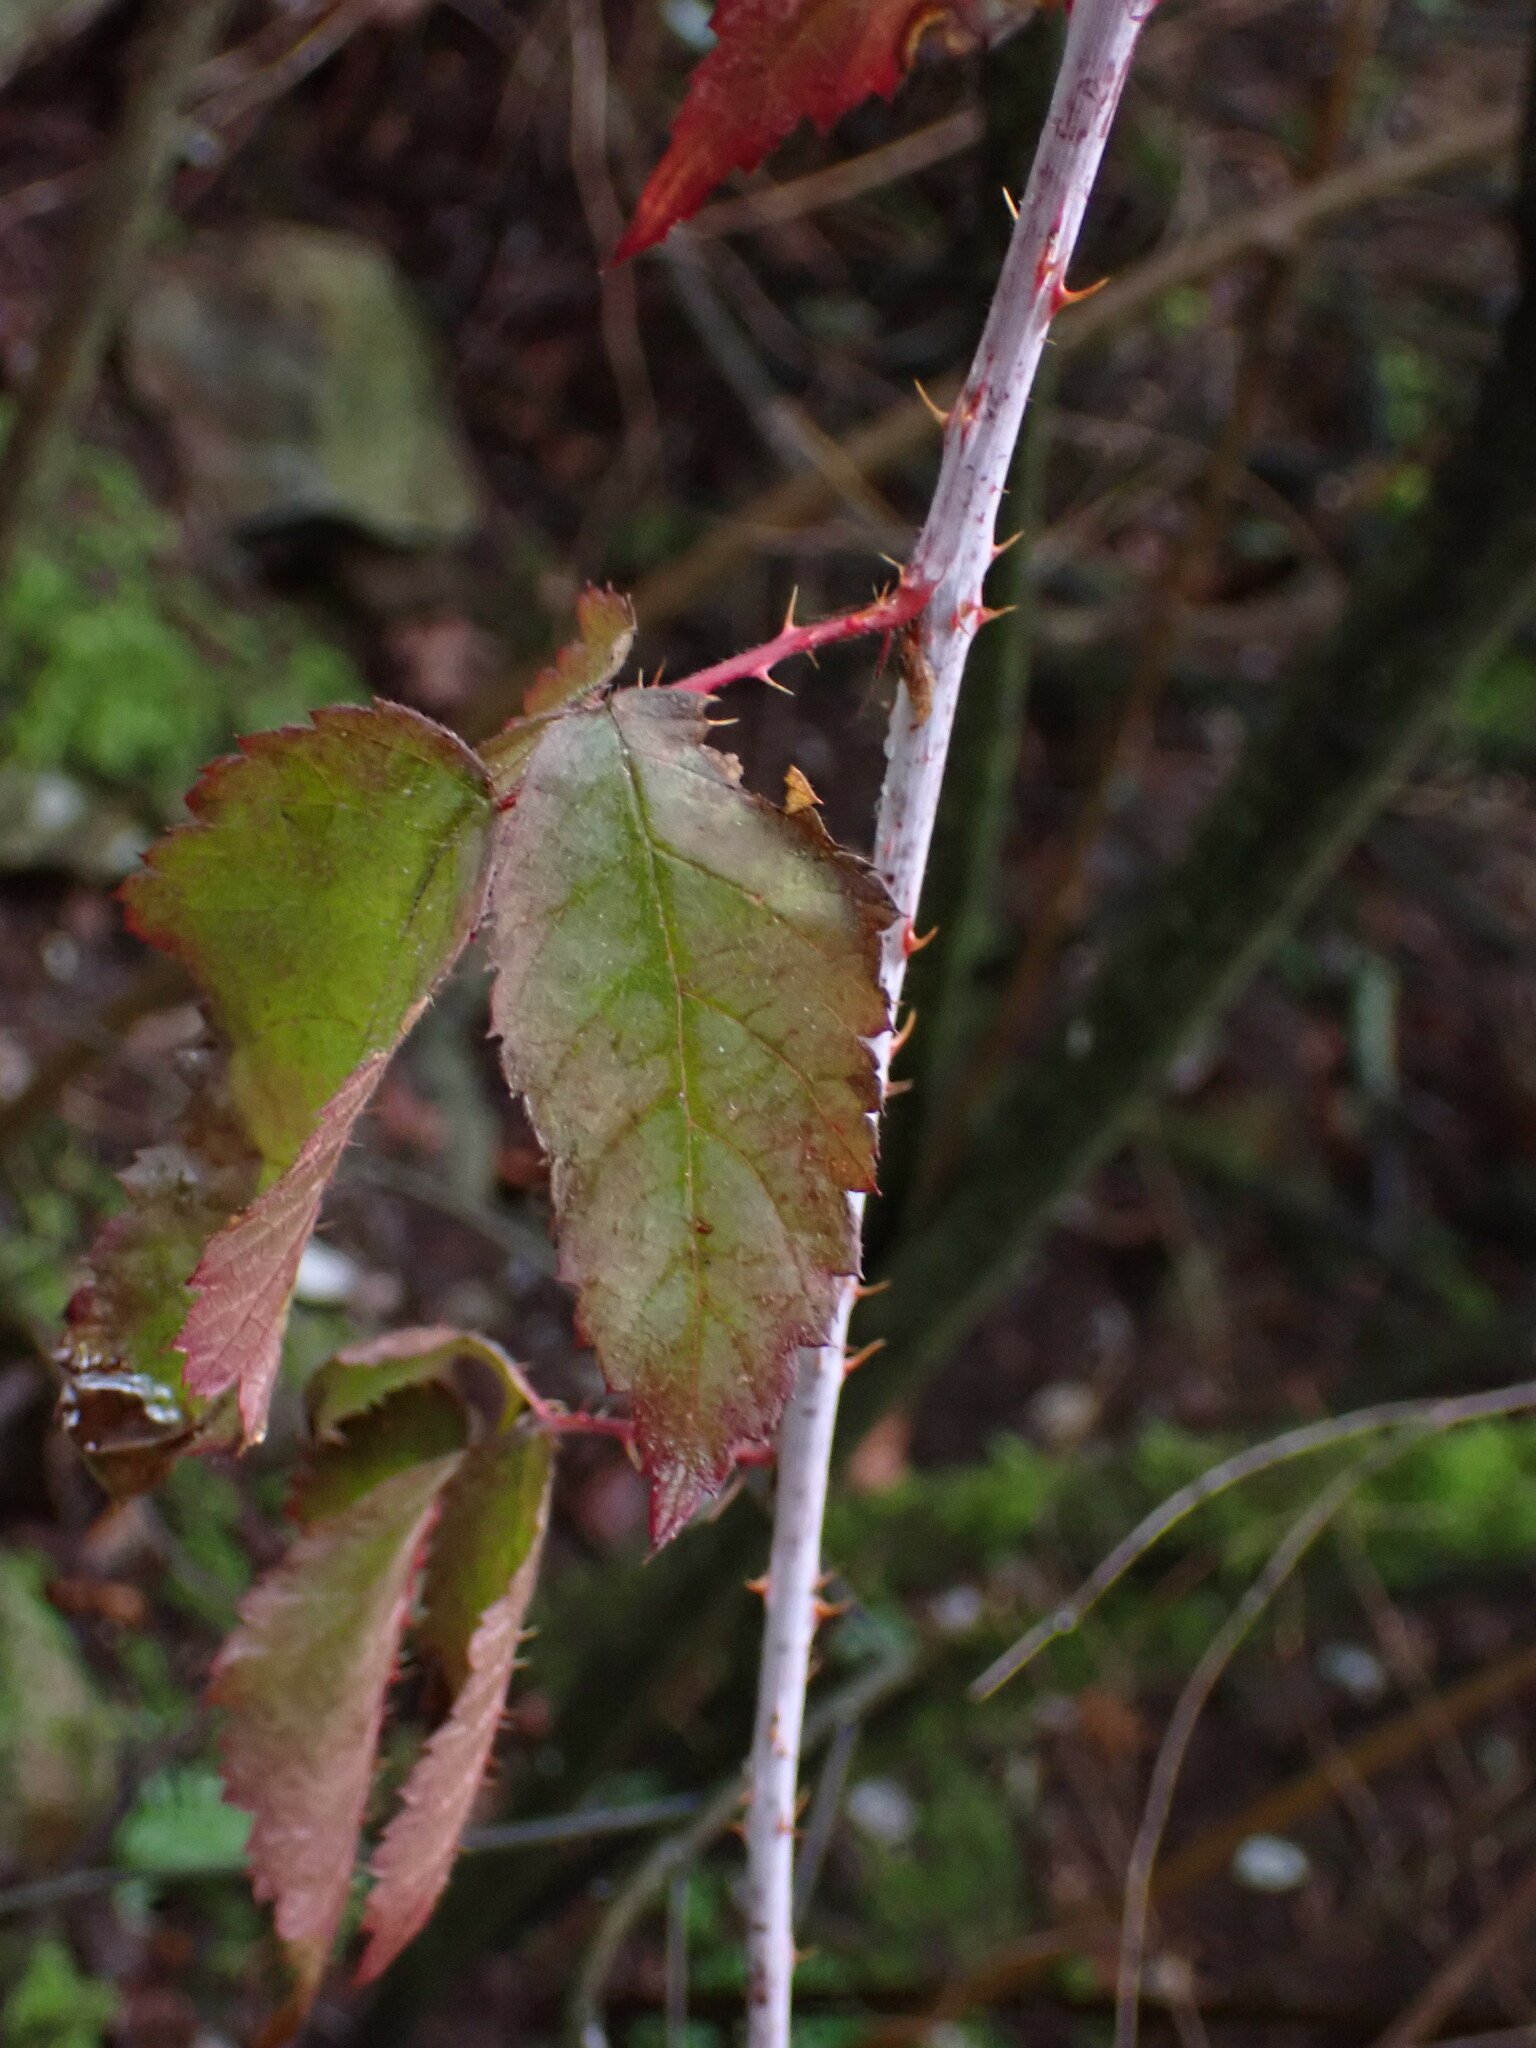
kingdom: Plantae
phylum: Tracheophyta
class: Magnoliopsida
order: Rosales
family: Rosaceae
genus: Rubus
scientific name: Rubus ursinus
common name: Pacific blackberry
